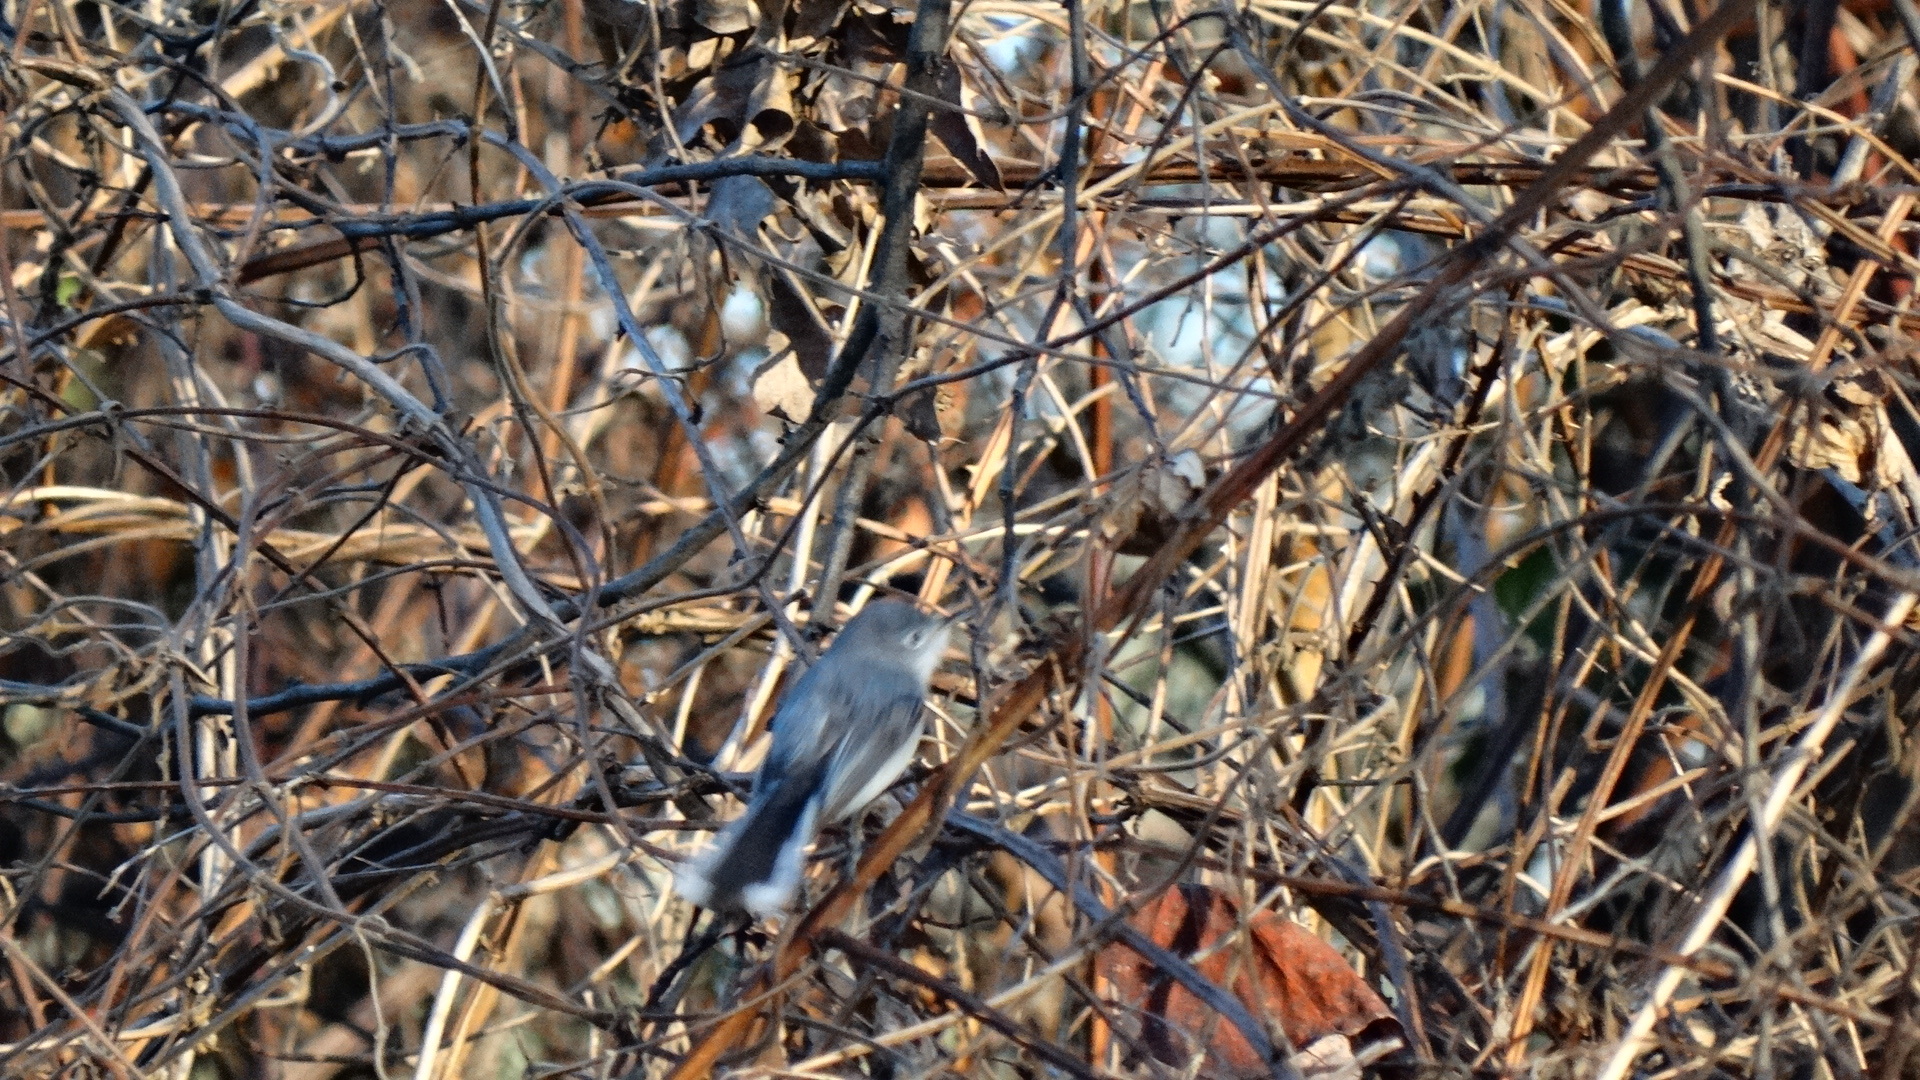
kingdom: Animalia
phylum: Chordata
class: Aves
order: Passeriformes
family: Polioptilidae
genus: Polioptila
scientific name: Polioptila caerulea
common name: Blue-gray gnatcatcher
